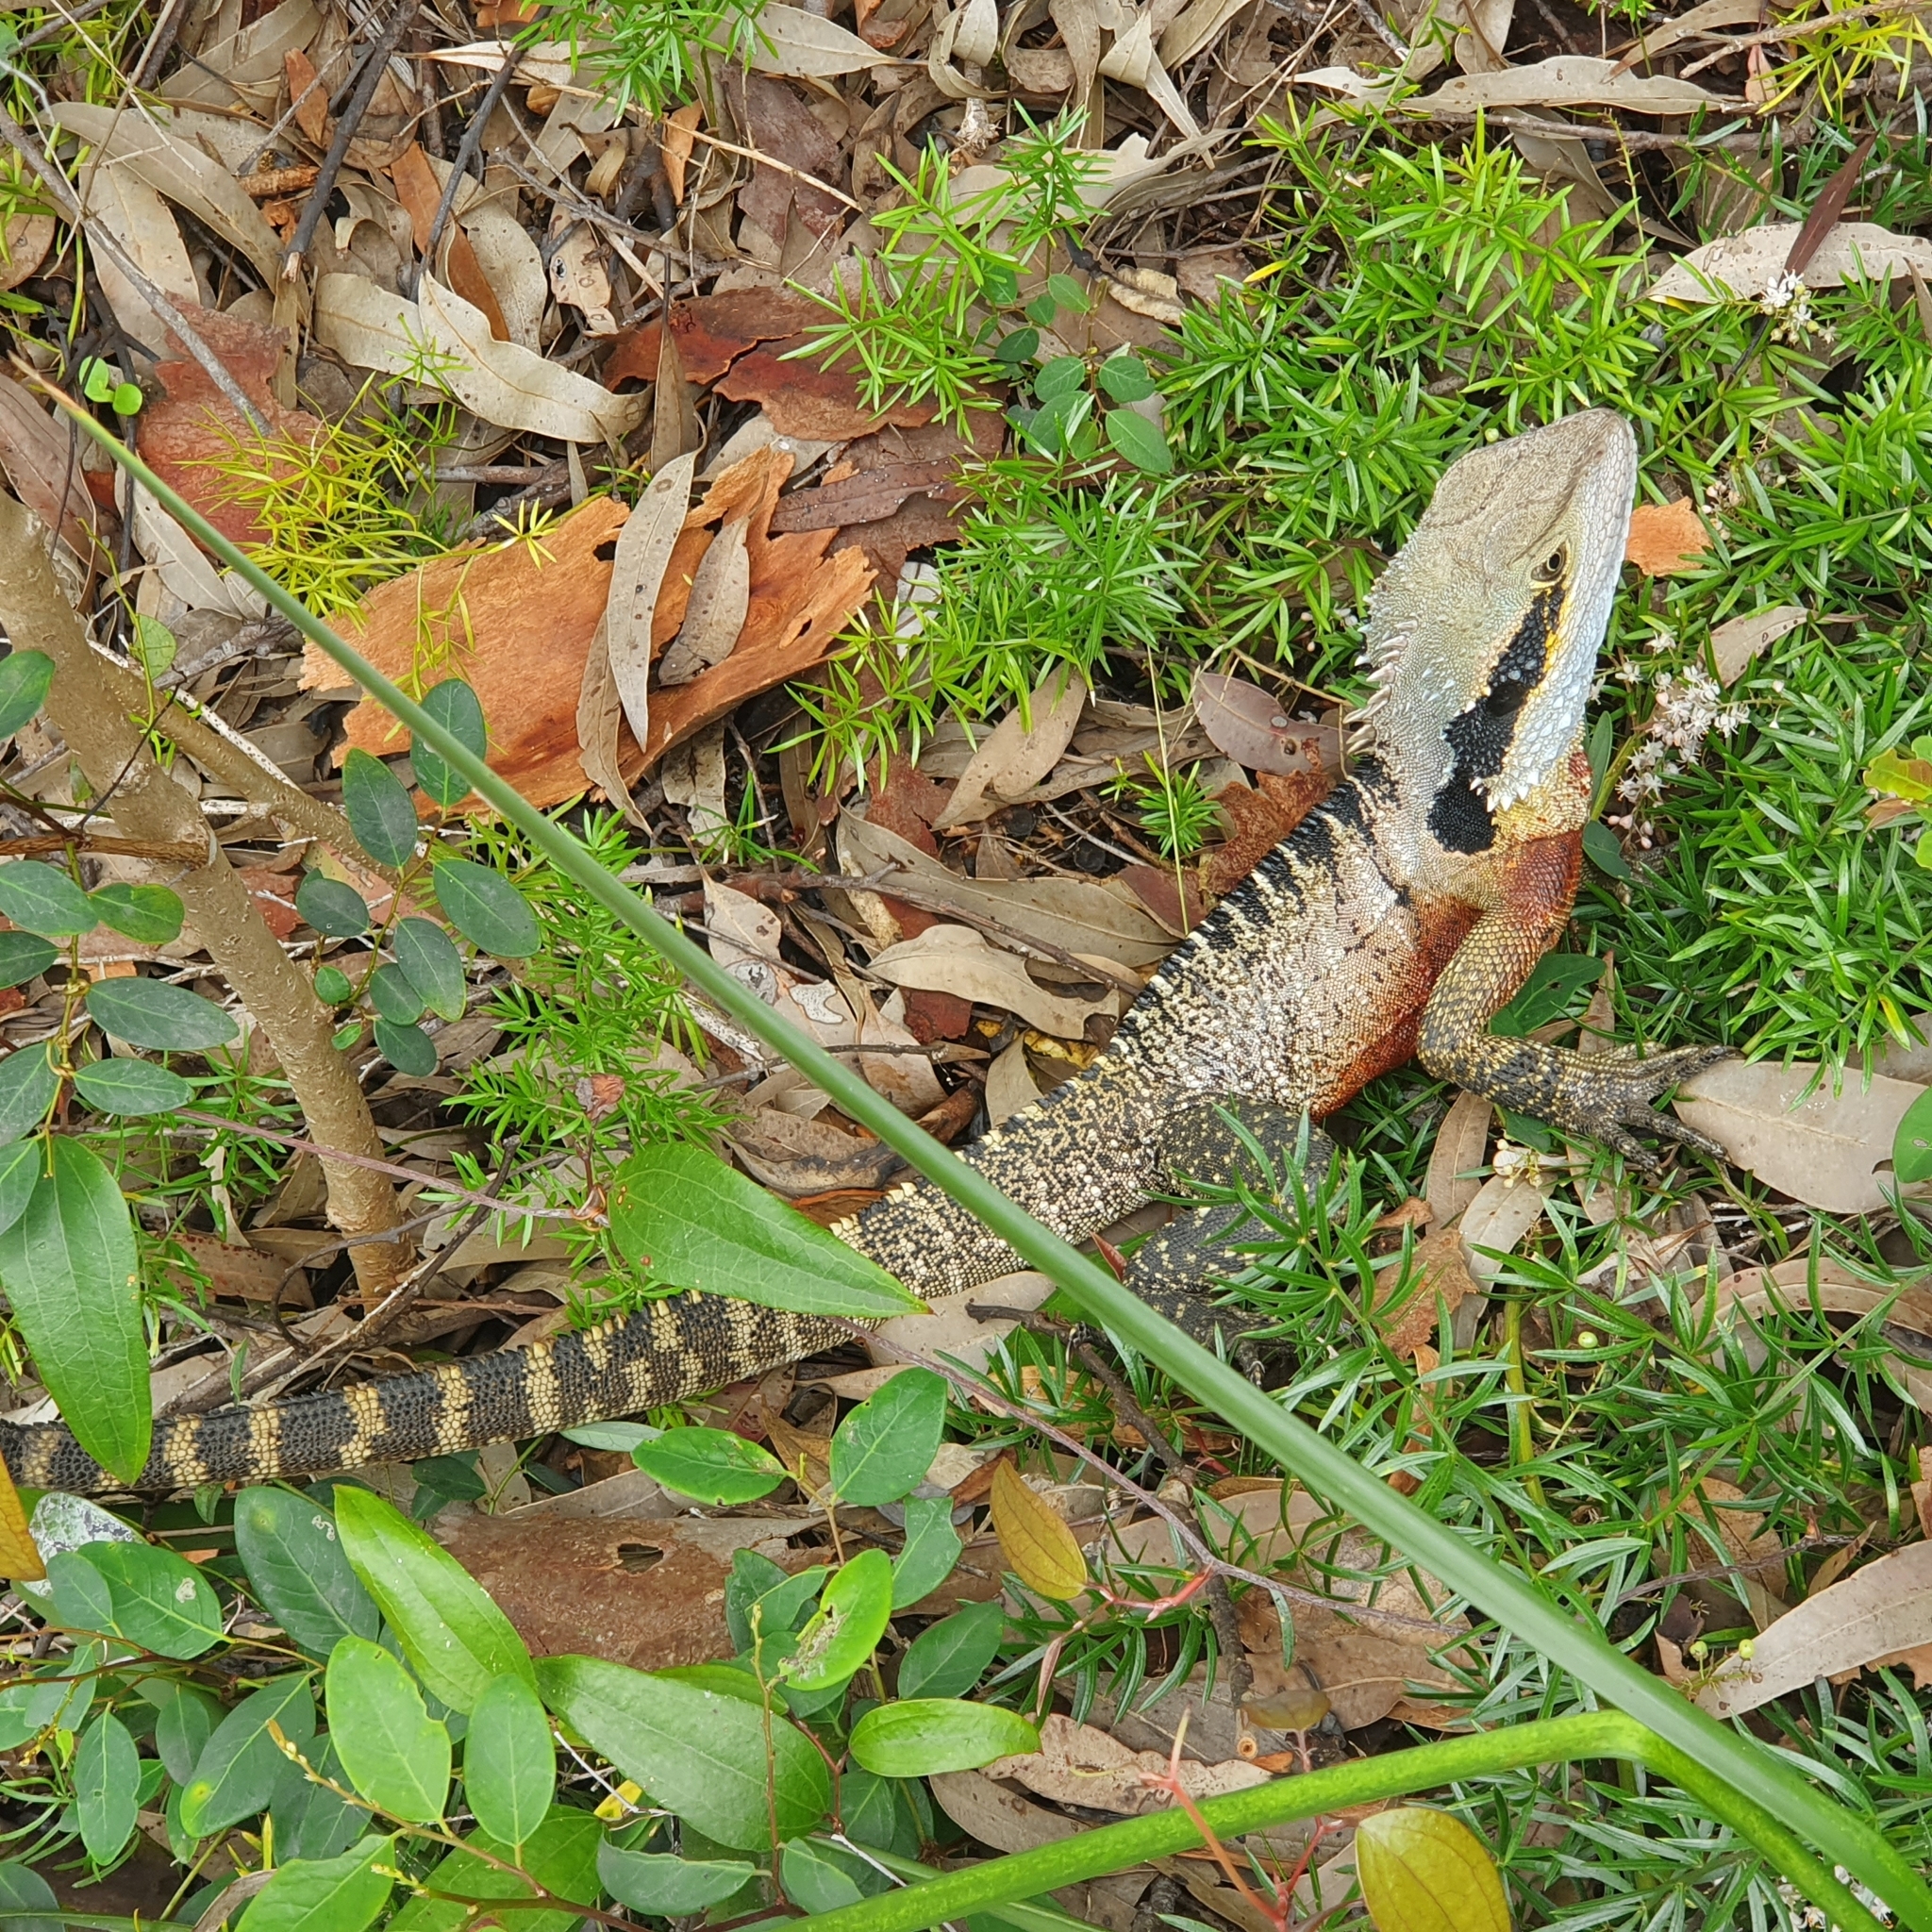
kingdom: Animalia
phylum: Chordata
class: Squamata
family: Agamidae
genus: Intellagama
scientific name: Intellagama lesueurii
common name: Eastern water dragon
